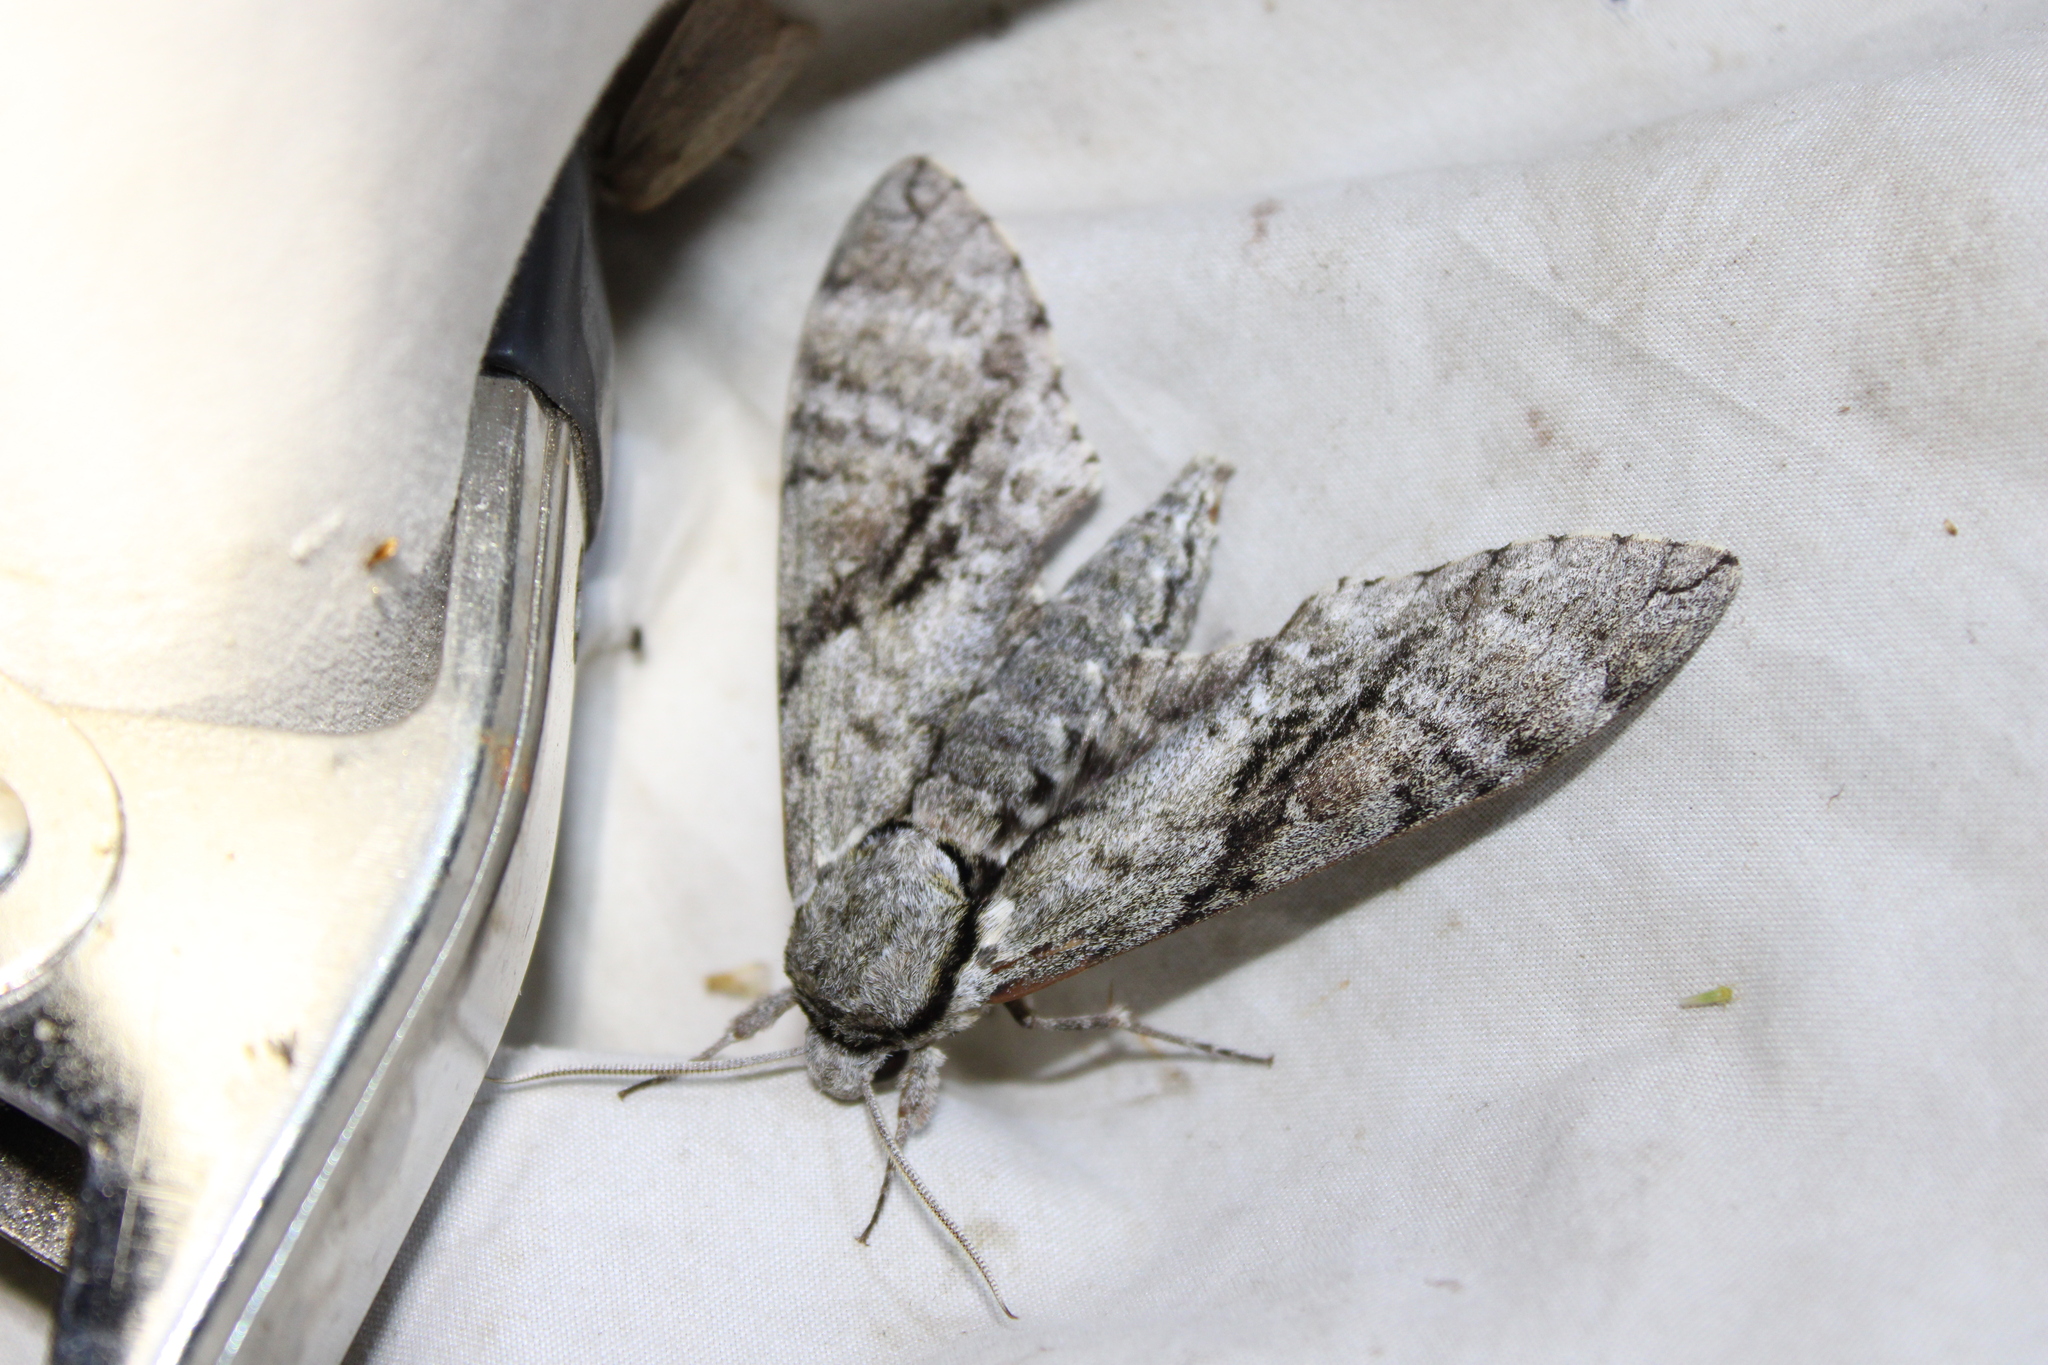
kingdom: Animalia
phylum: Arthropoda
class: Insecta
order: Lepidoptera
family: Sphingidae
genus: Manduca
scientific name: Manduca jasminearum
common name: Ash sphinx
